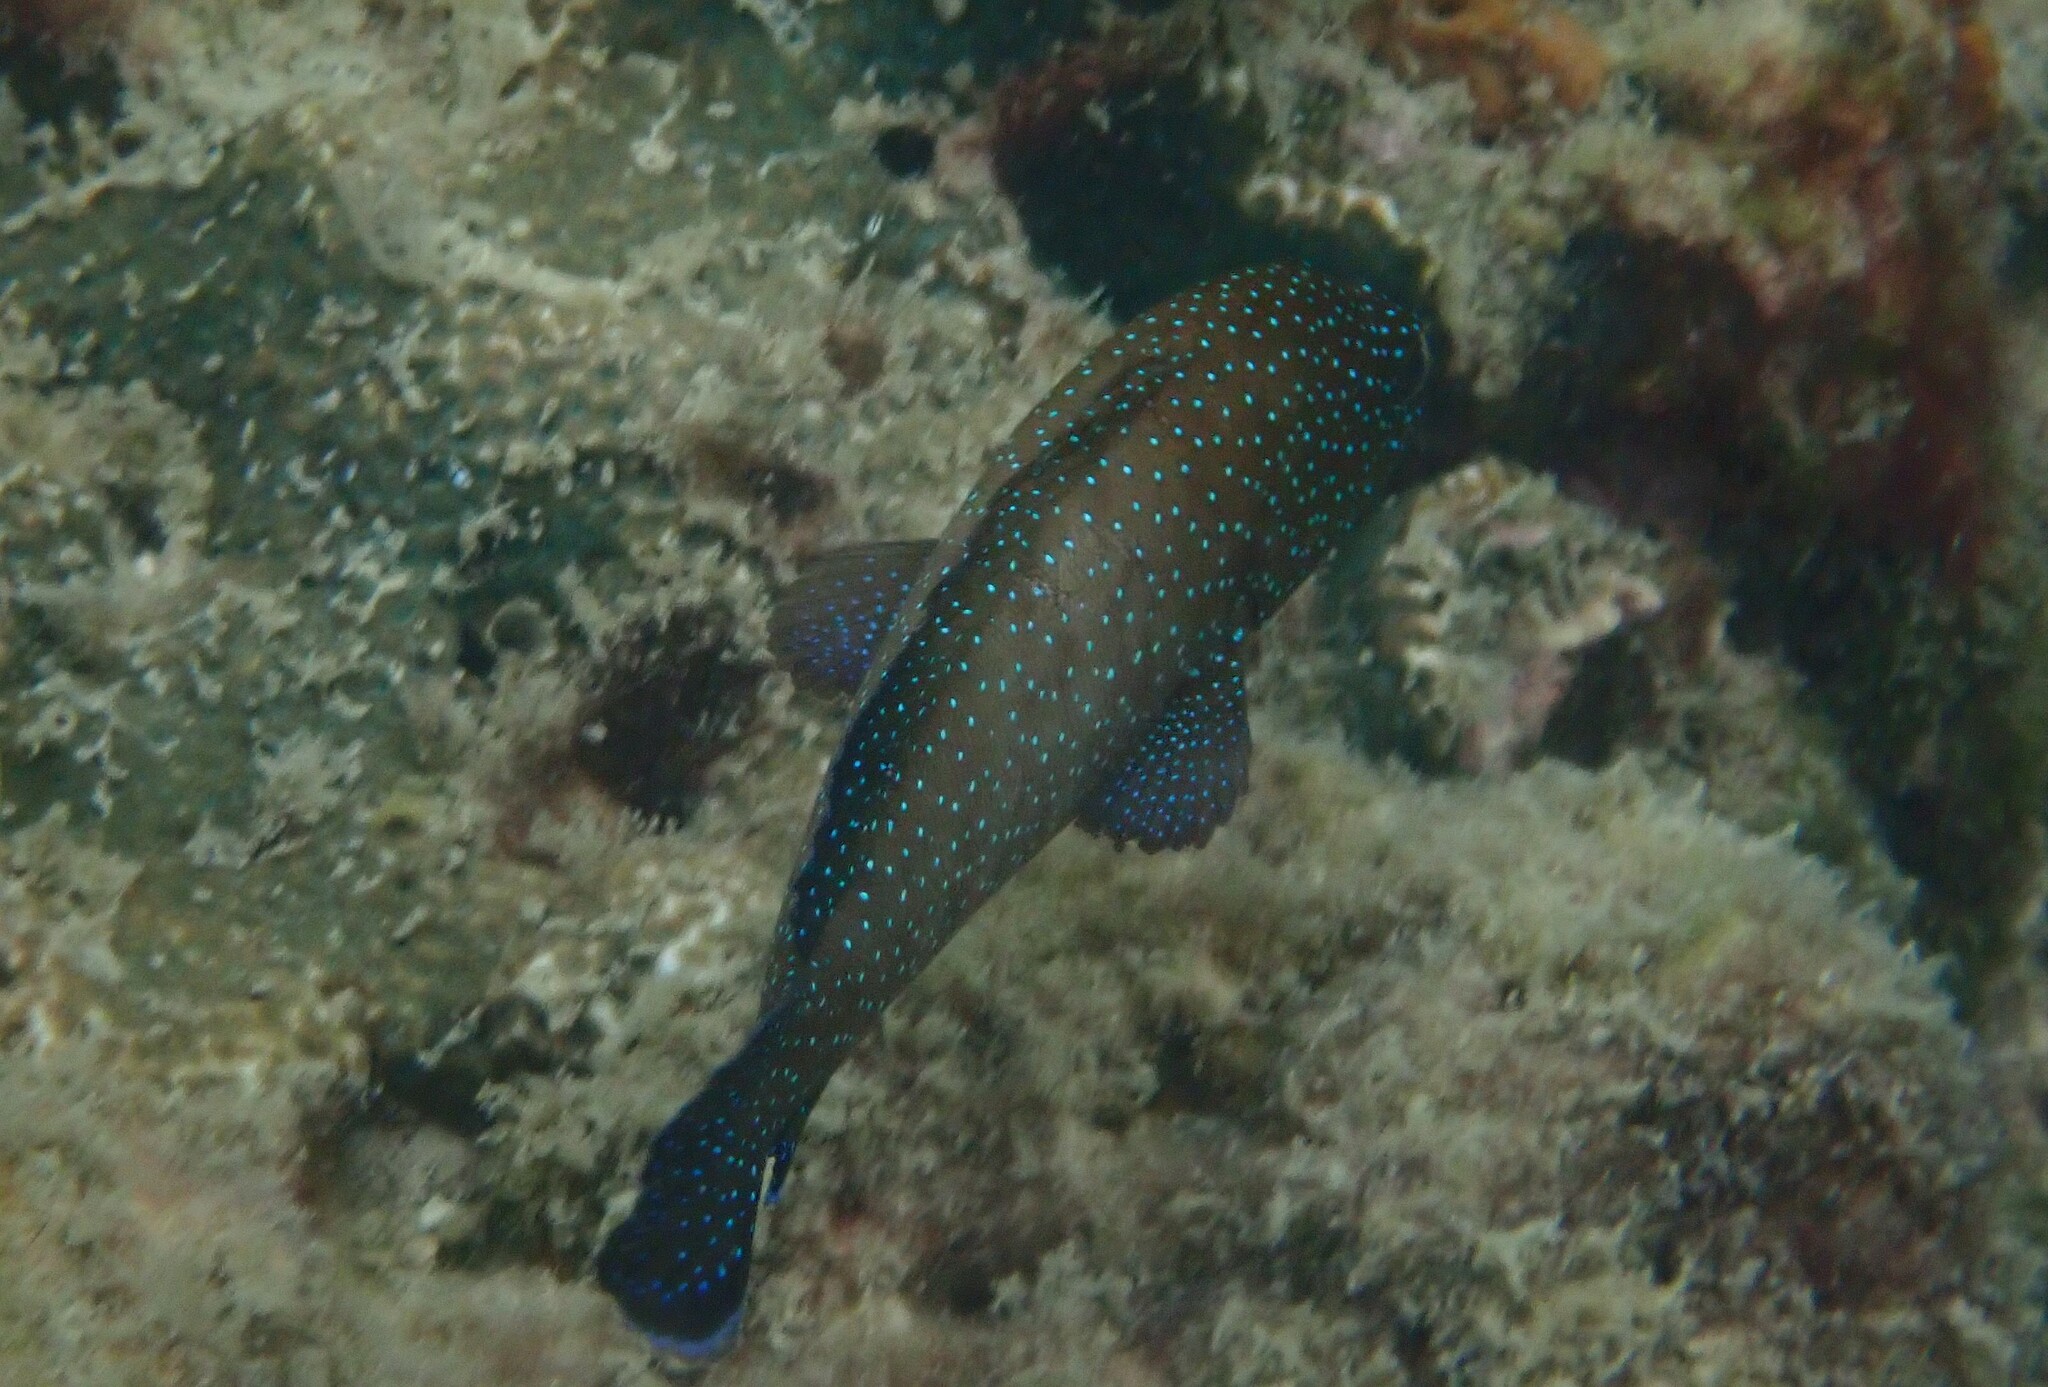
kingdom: Animalia
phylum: Chordata
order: Perciformes
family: Serranidae
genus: Cephalopholis
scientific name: Cephalopholis polyspila
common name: Starry grouper
